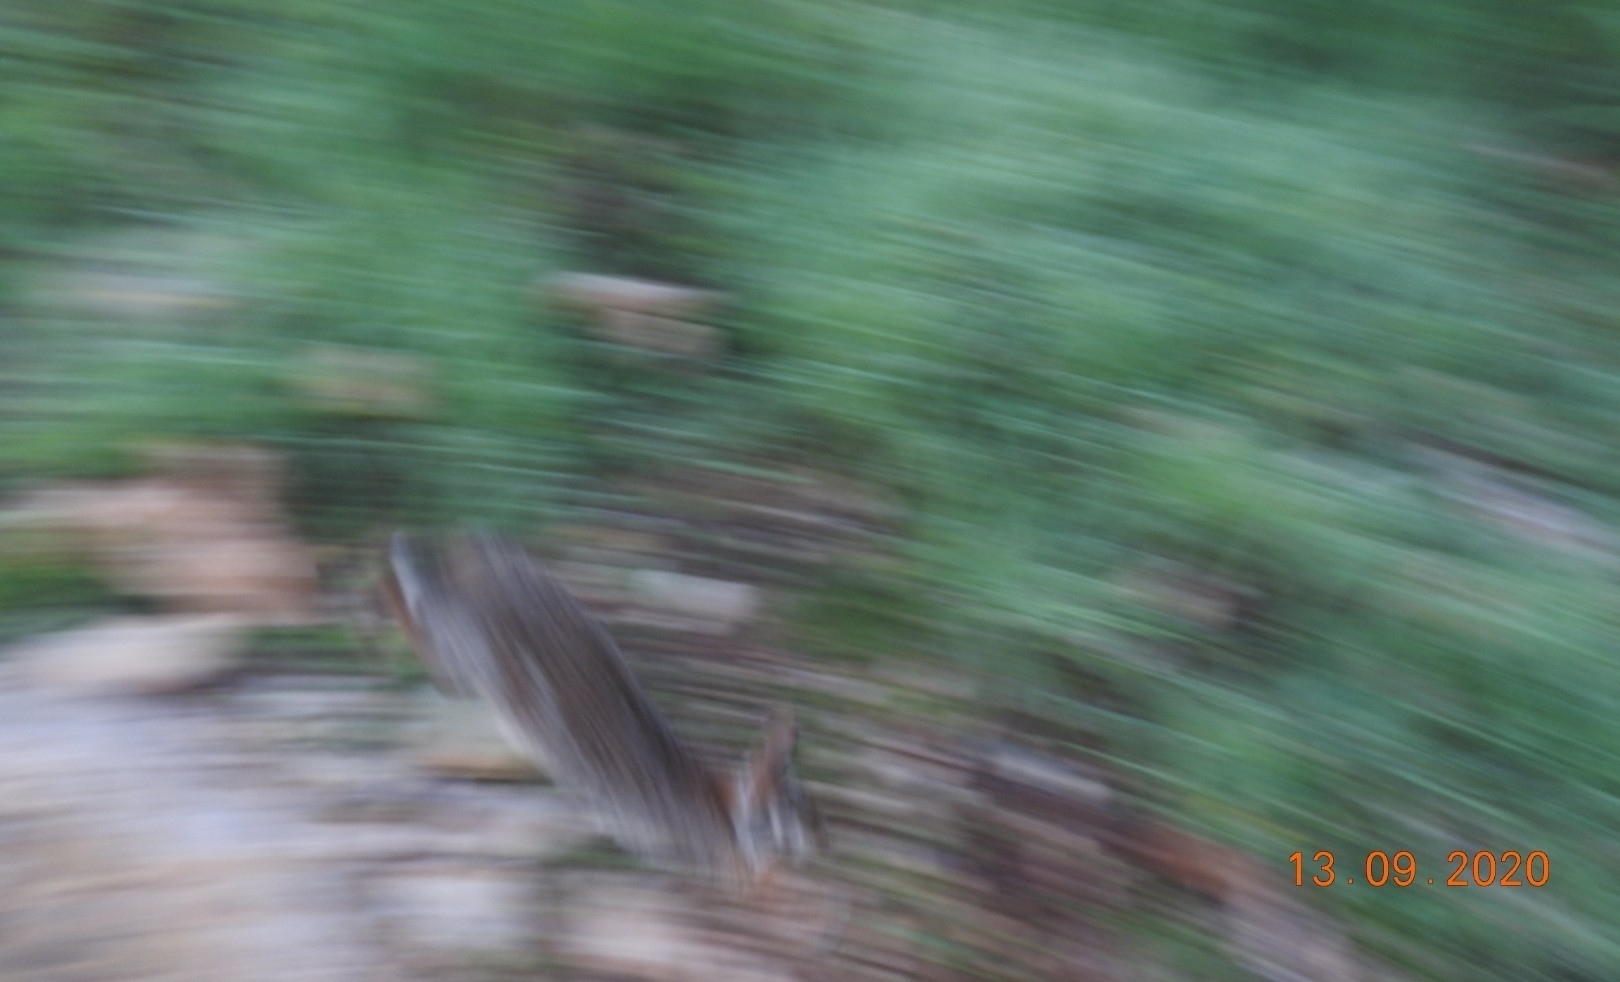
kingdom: Animalia
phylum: Chordata
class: Mammalia
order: Lagomorpha
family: Leporidae
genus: Sylvilagus
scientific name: Sylvilagus floridanus
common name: Eastern cottontail
